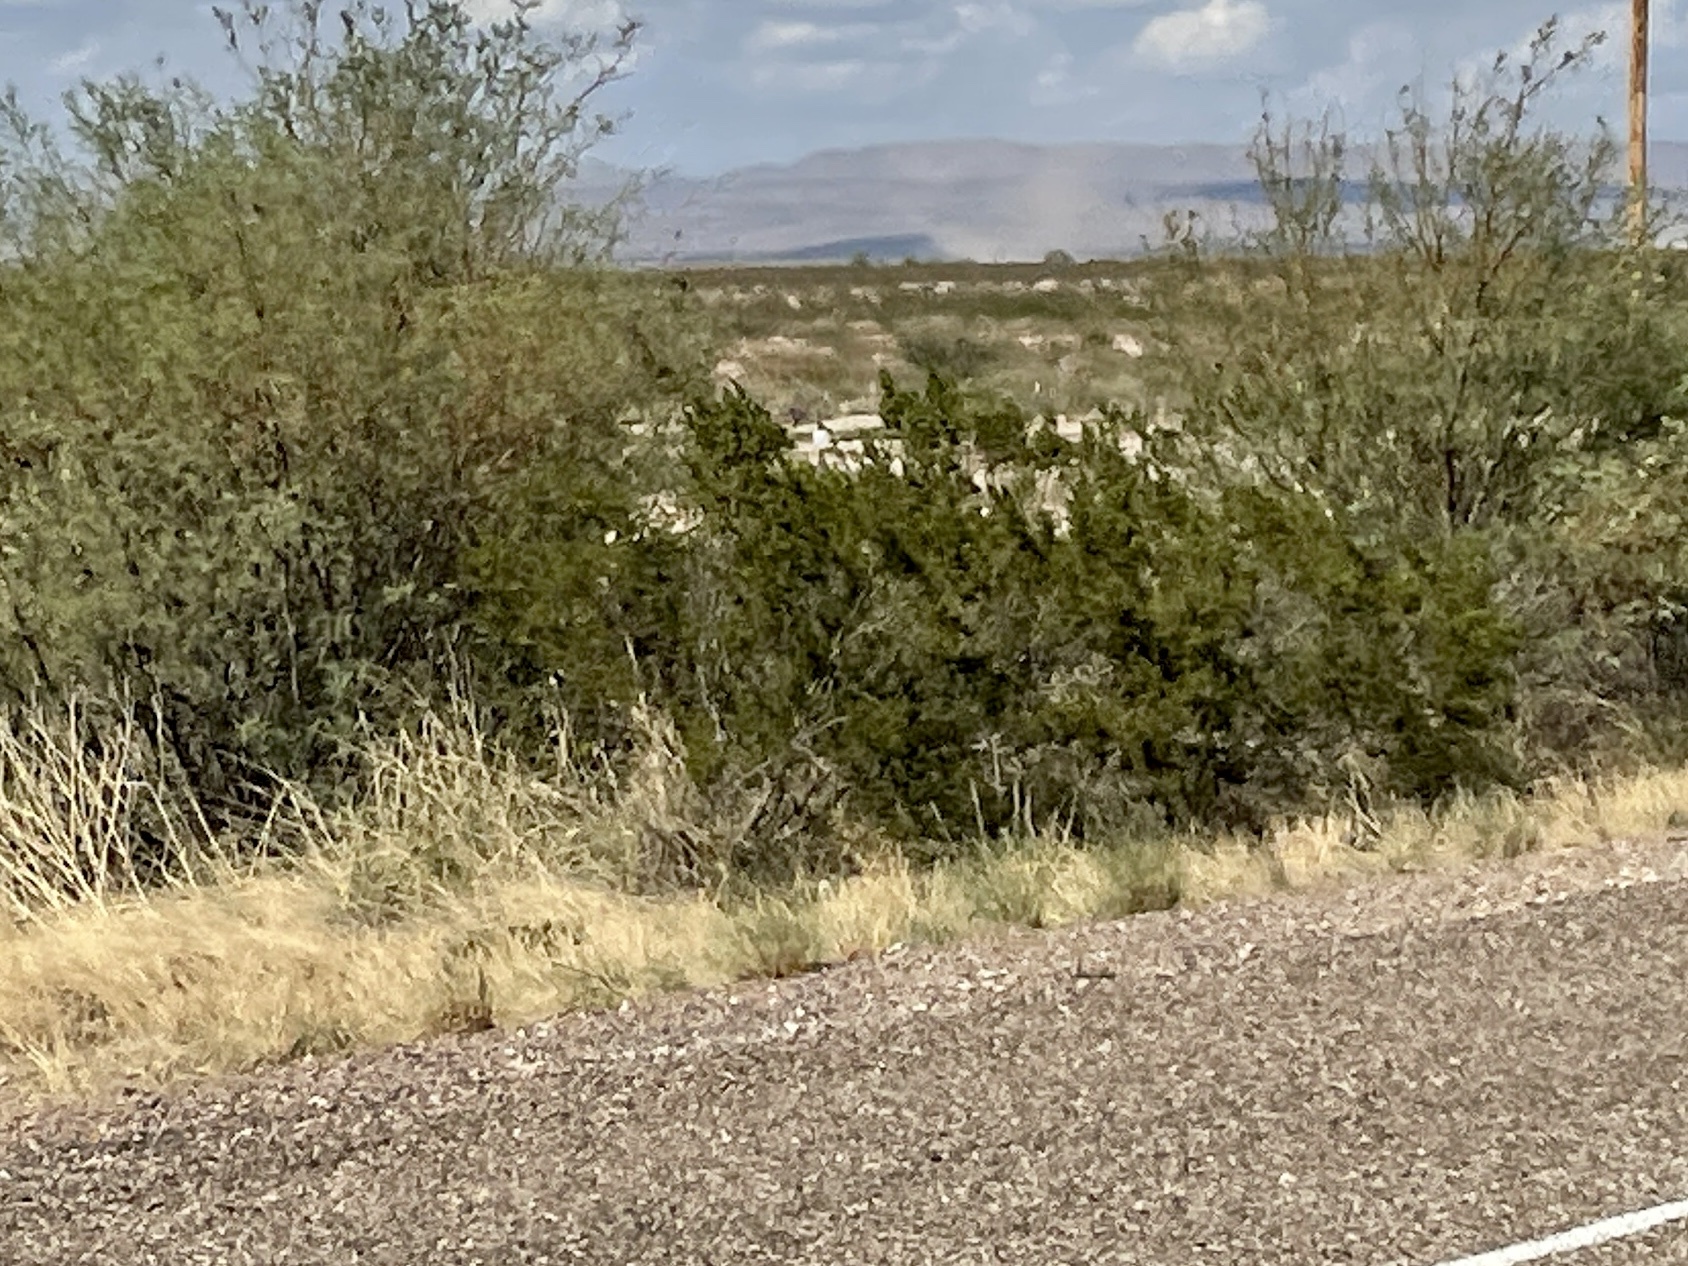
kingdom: Plantae
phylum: Tracheophyta
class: Magnoliopsida
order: Zygophyllales
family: Zygophyllaceae
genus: Larrea
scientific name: Larrea tridentata
